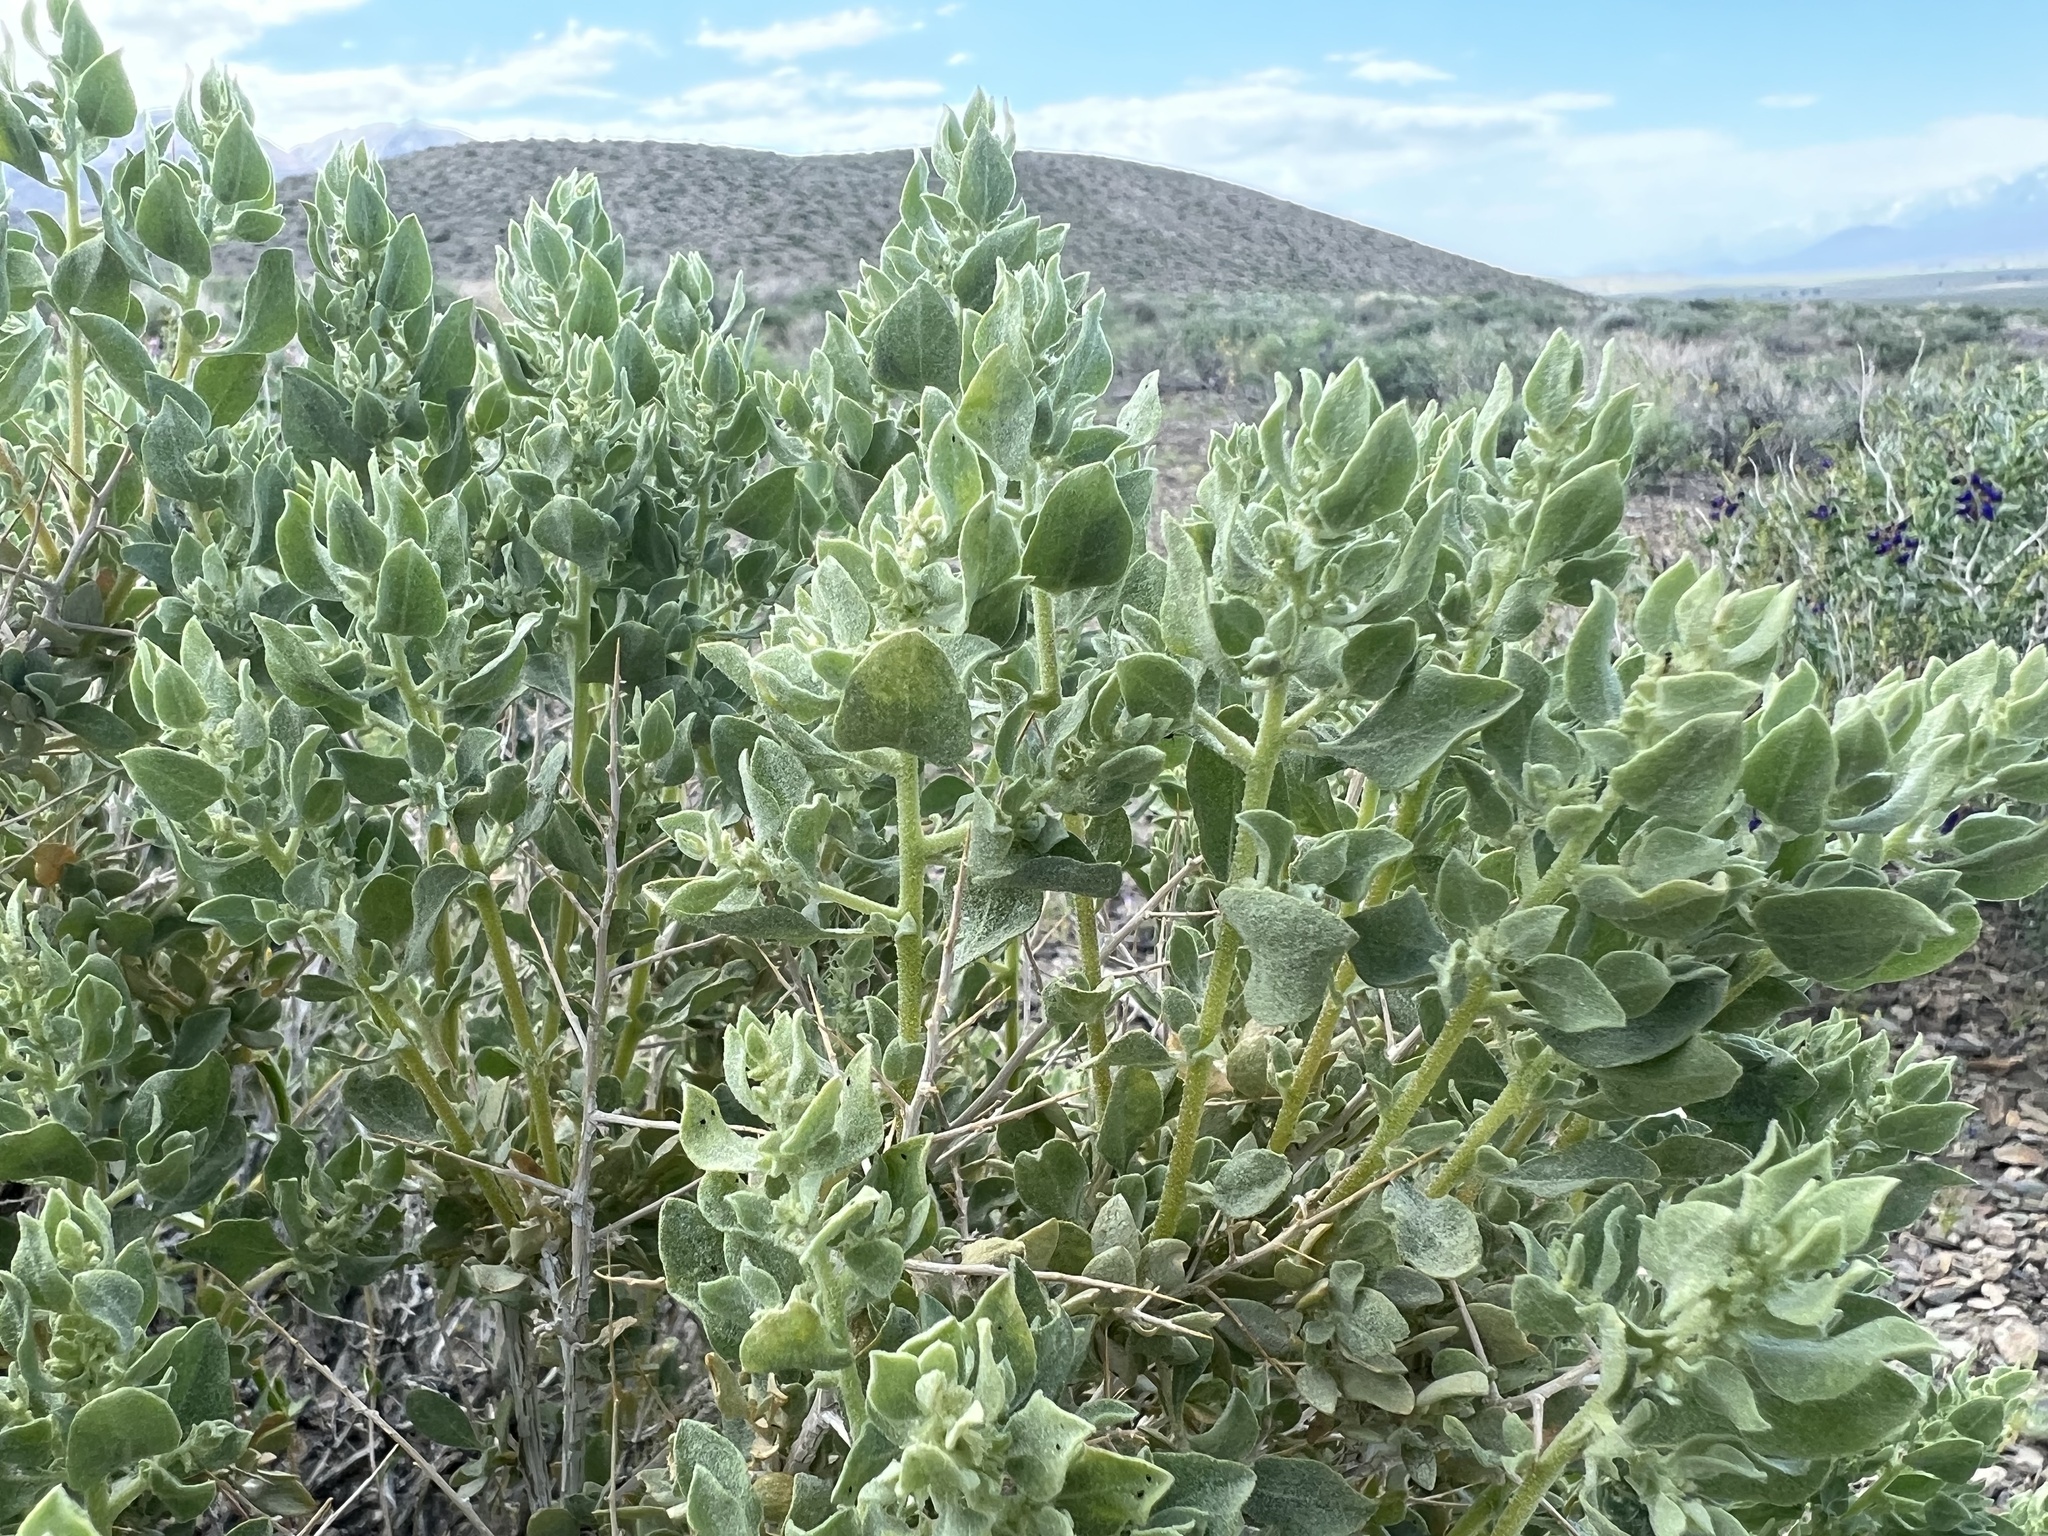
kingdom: Plantae
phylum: Tracheophyta
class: Magnoliopsida
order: Caryophyllales
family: Amaranthaceae
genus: Atriplex
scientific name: Atriplex confertifolia
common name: Shadscale
